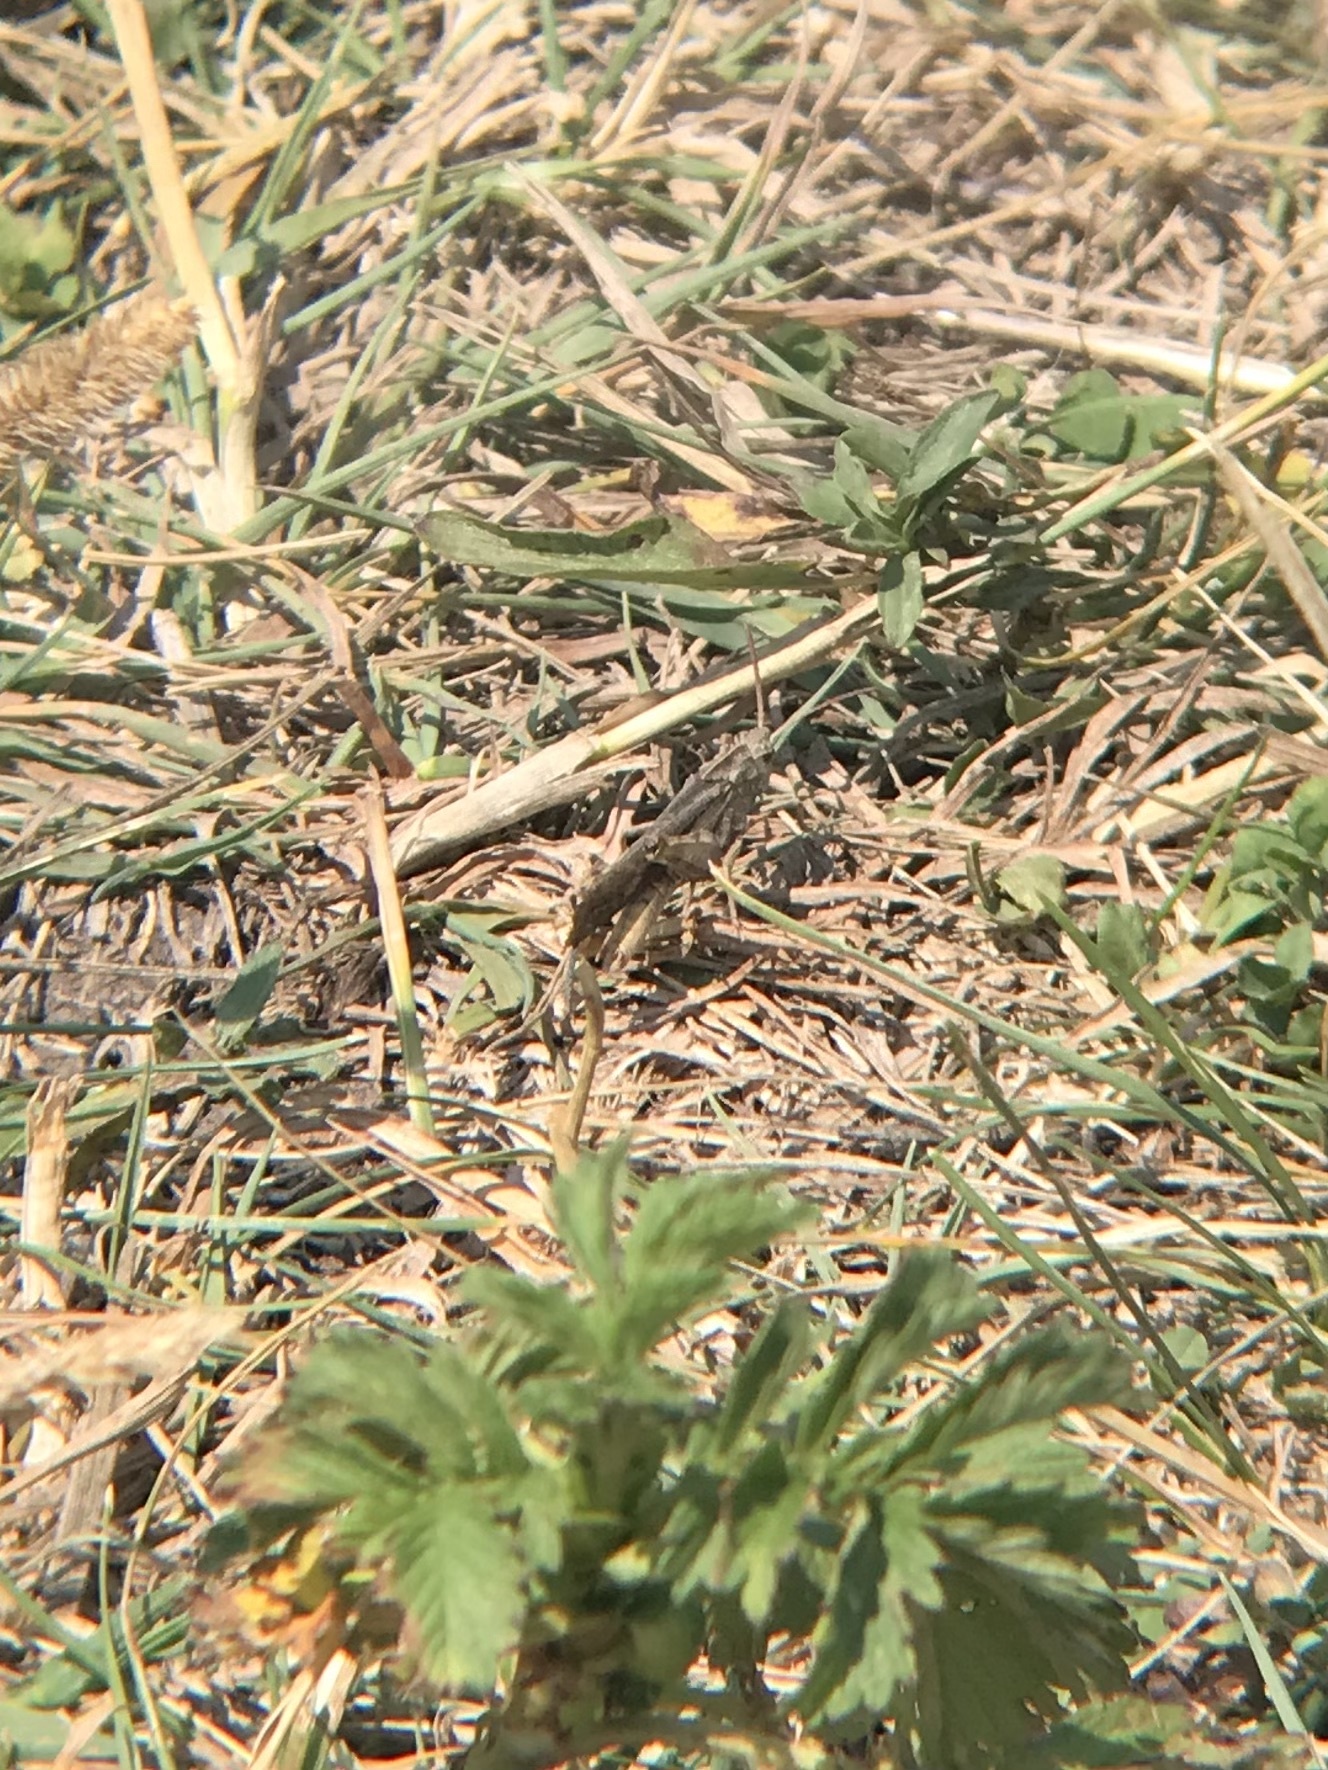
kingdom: Animalia
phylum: Arthropoda
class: Insecta
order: Orthoptera
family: Acrididae
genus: Chortophaga
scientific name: Chortophaga viridifasciata
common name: Green-striped grasshopper
